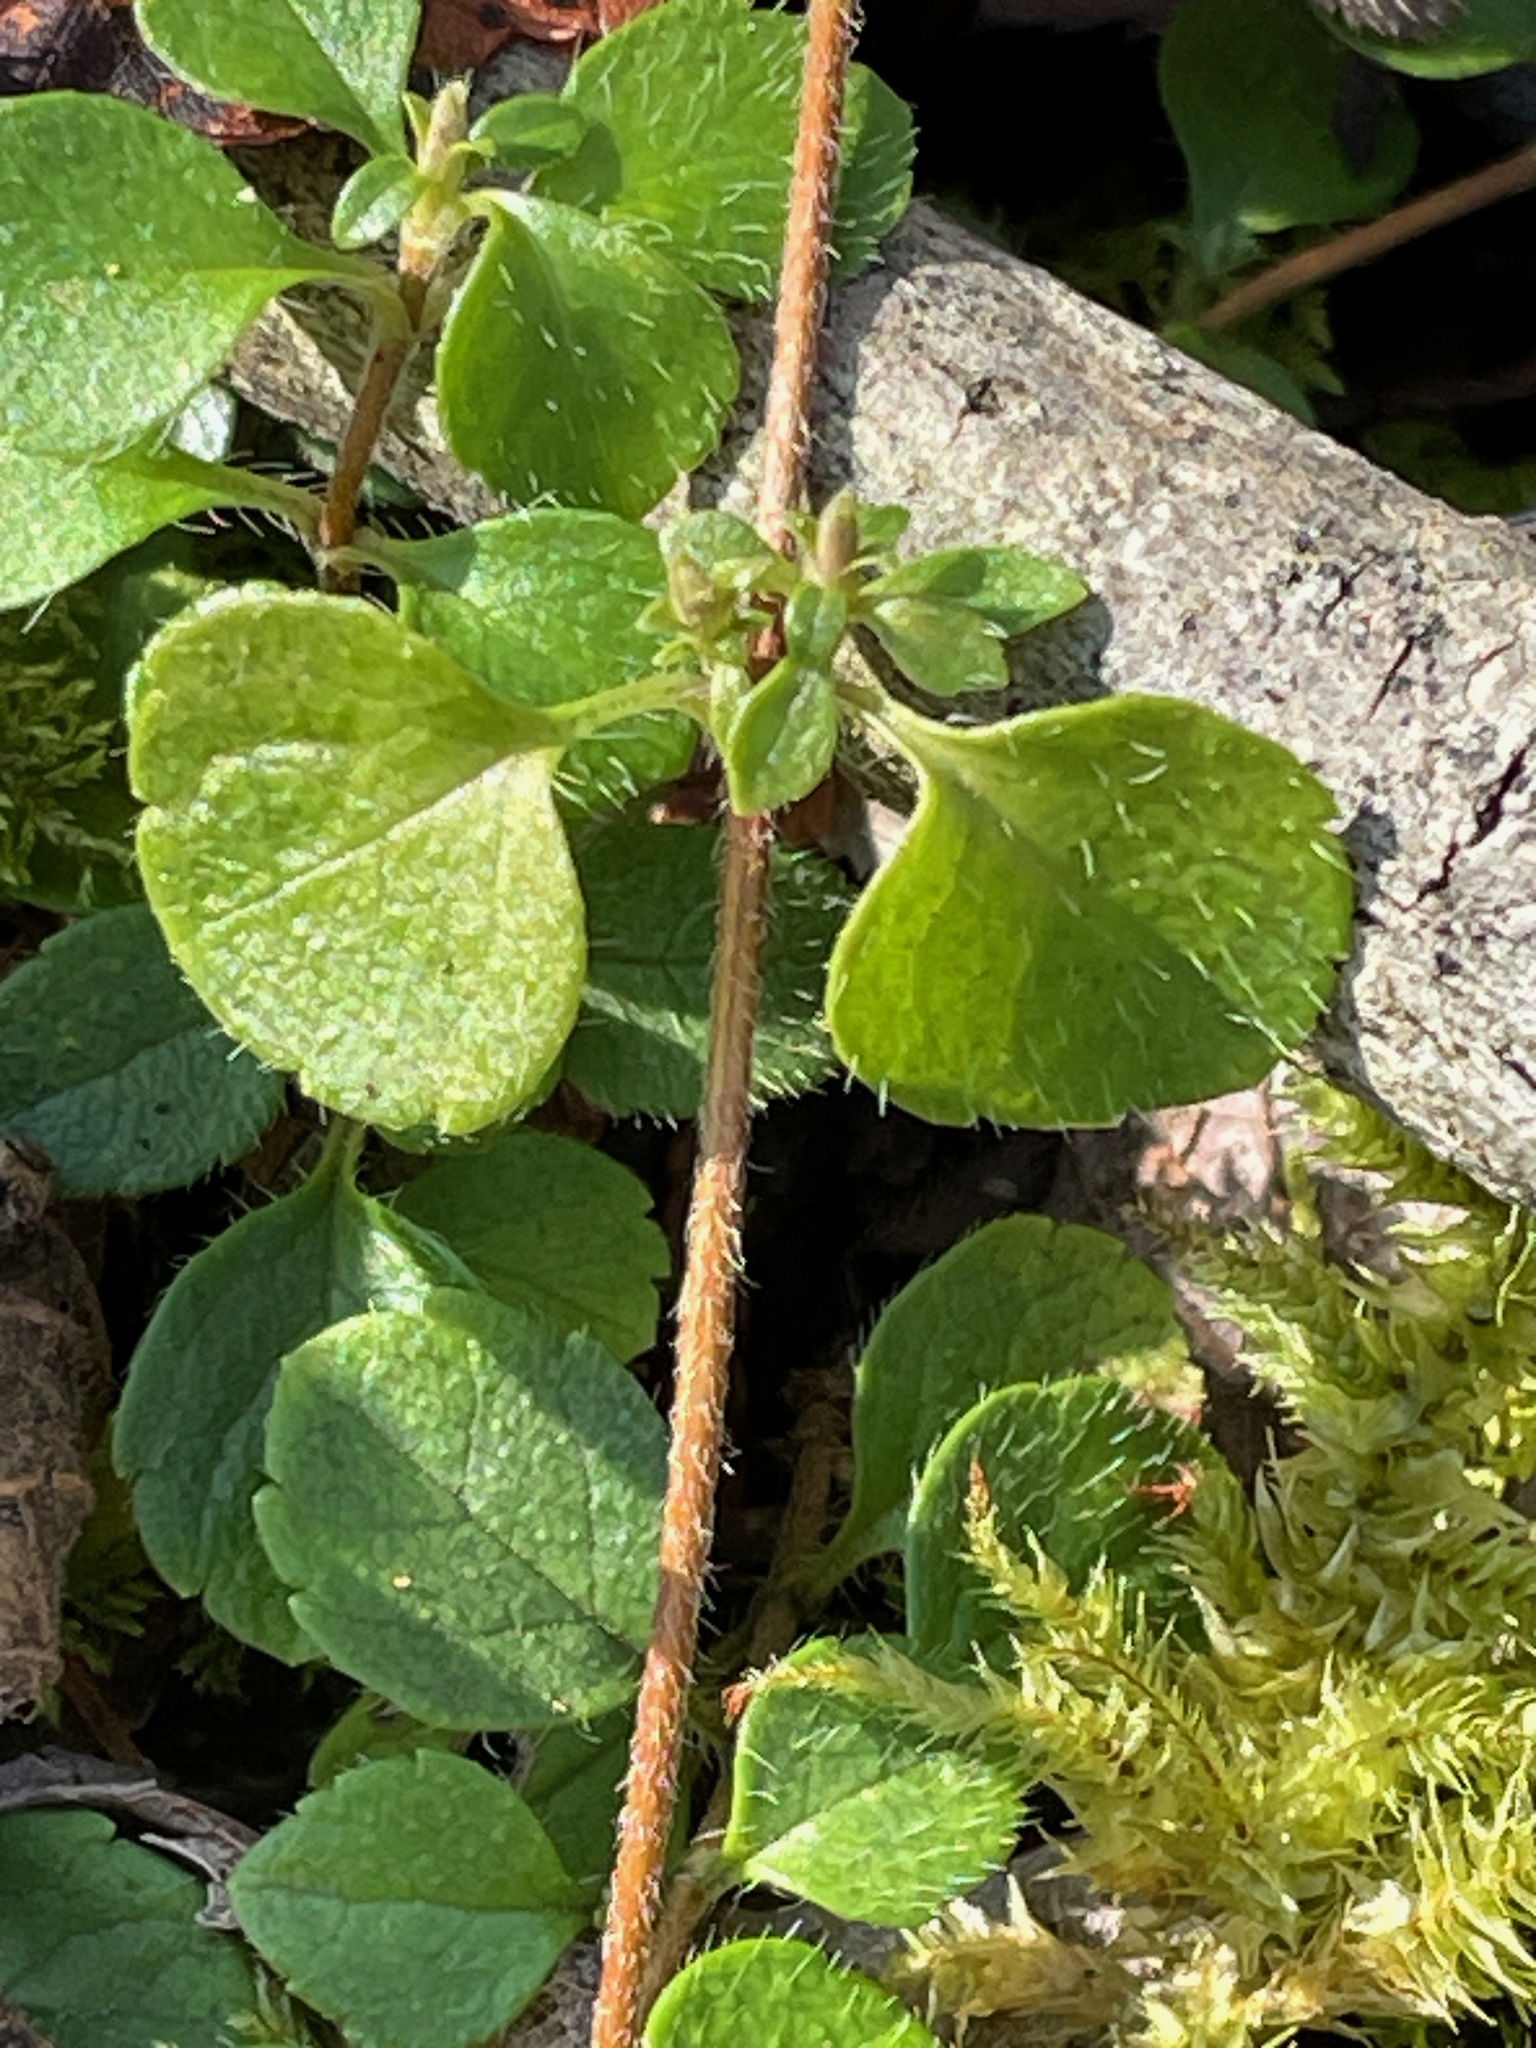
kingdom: Plantae
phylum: Tracheophyta
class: Magnoliopsida
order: Dipsacales
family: Caprifoliaceae
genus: Linnaea
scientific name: Linnaea borealis
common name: Twinflower
